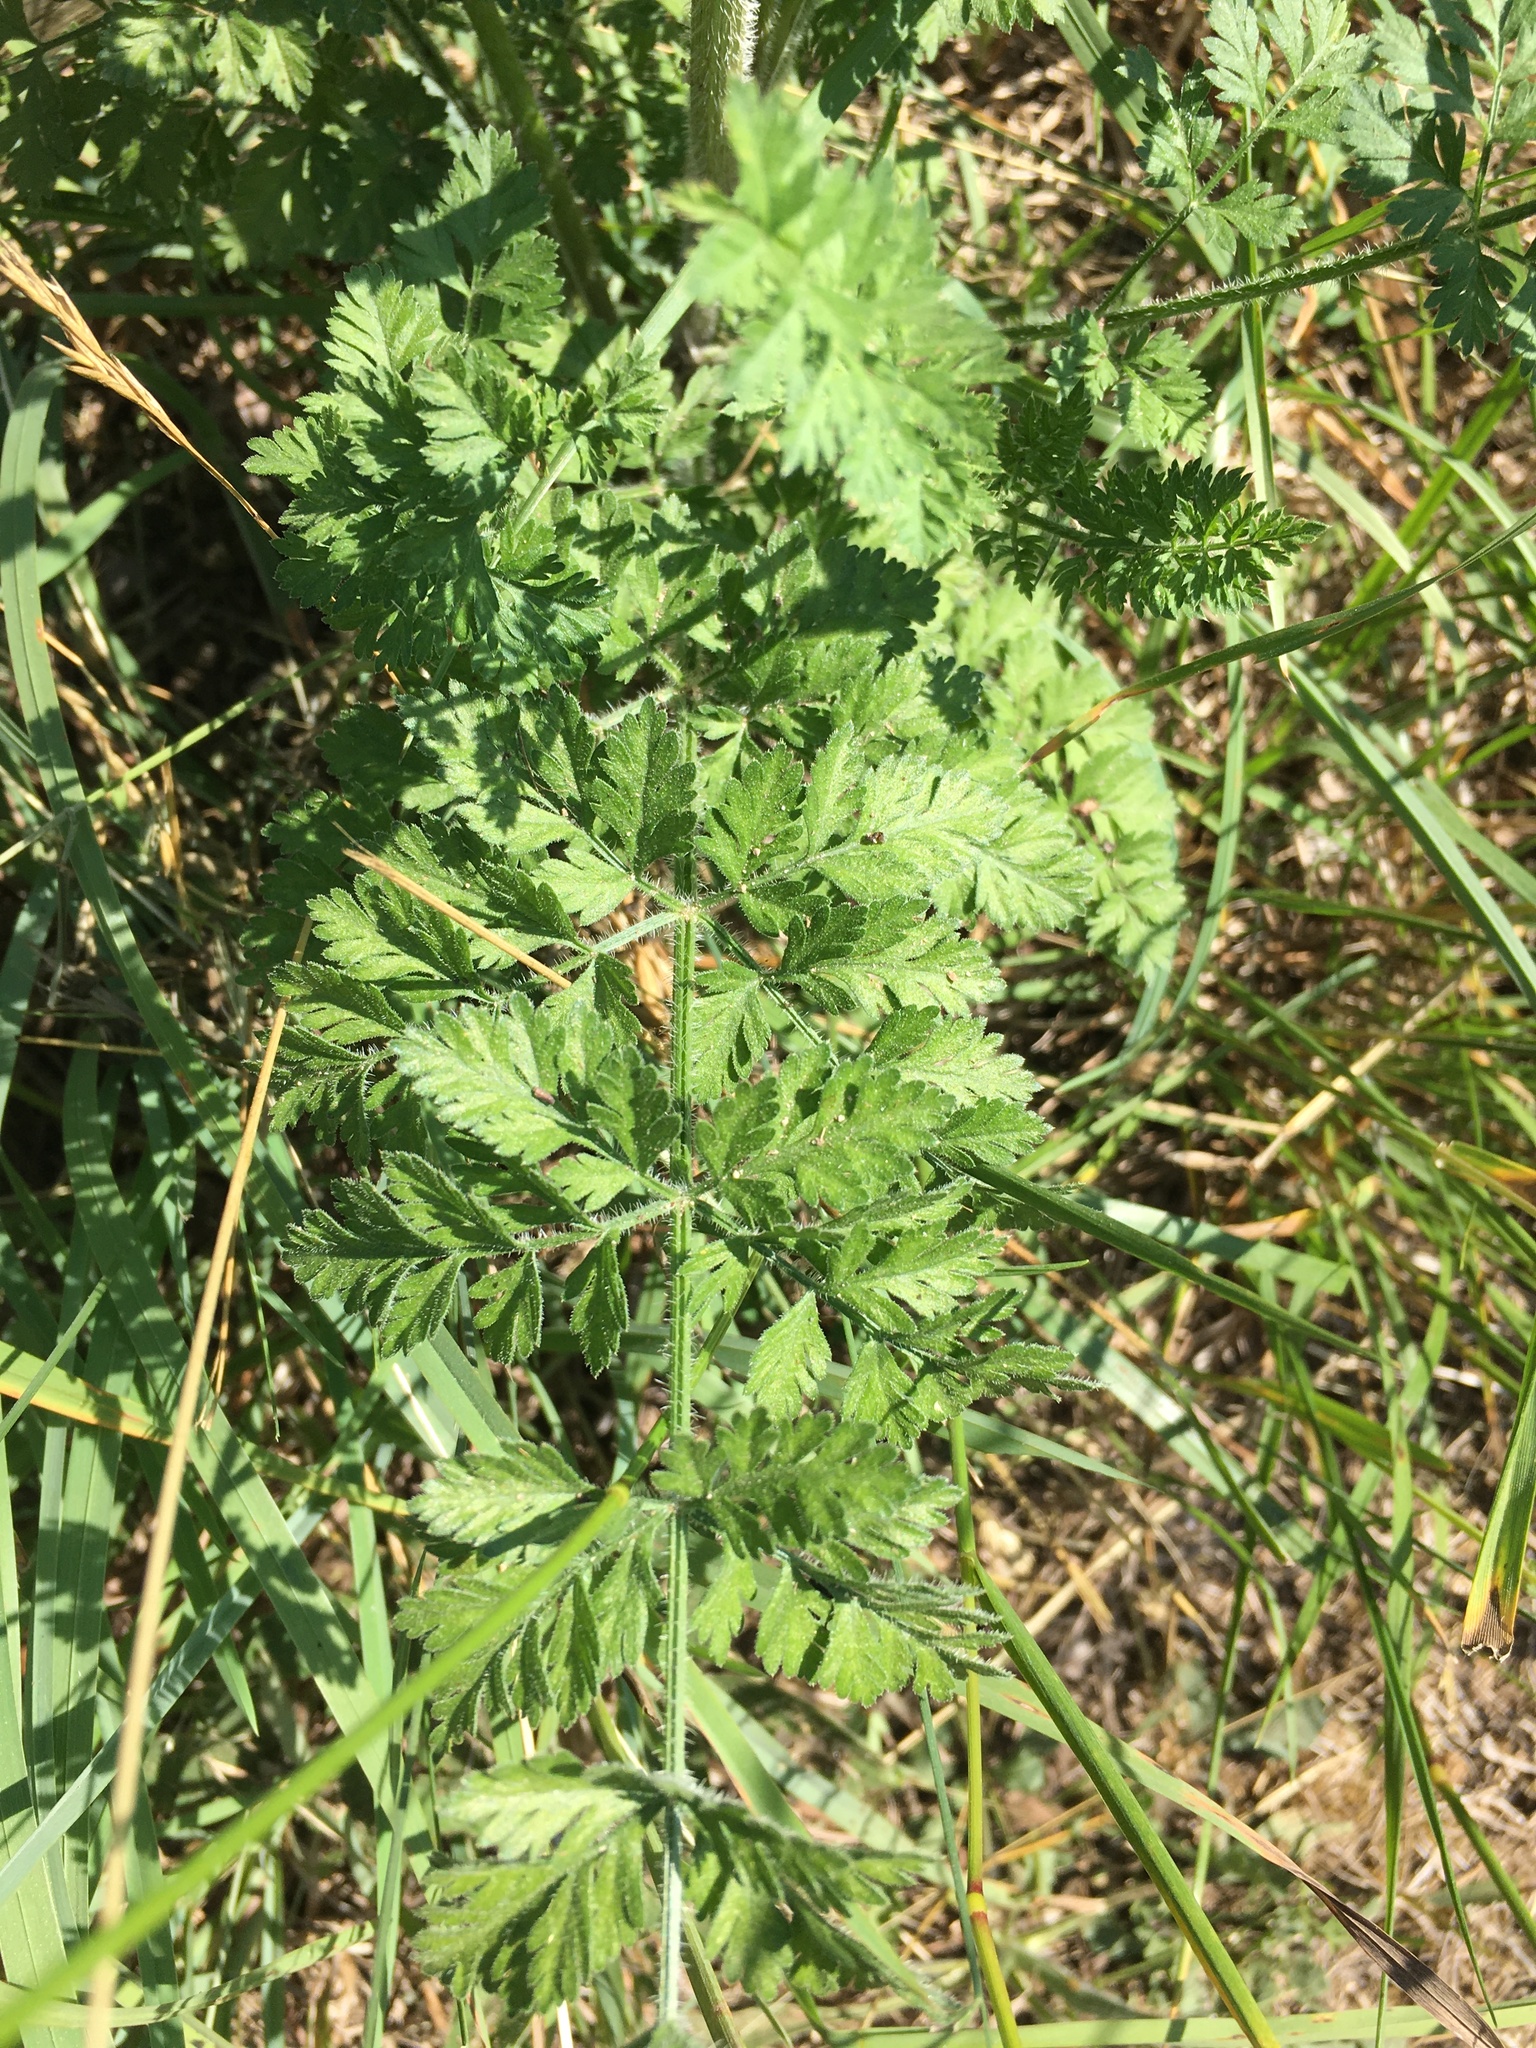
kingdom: Plantae
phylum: Tracheophyta
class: Magnoliopsida
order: Apiales
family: Apiaceae
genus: Daucus
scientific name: Daucus carota
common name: Wild carrot
